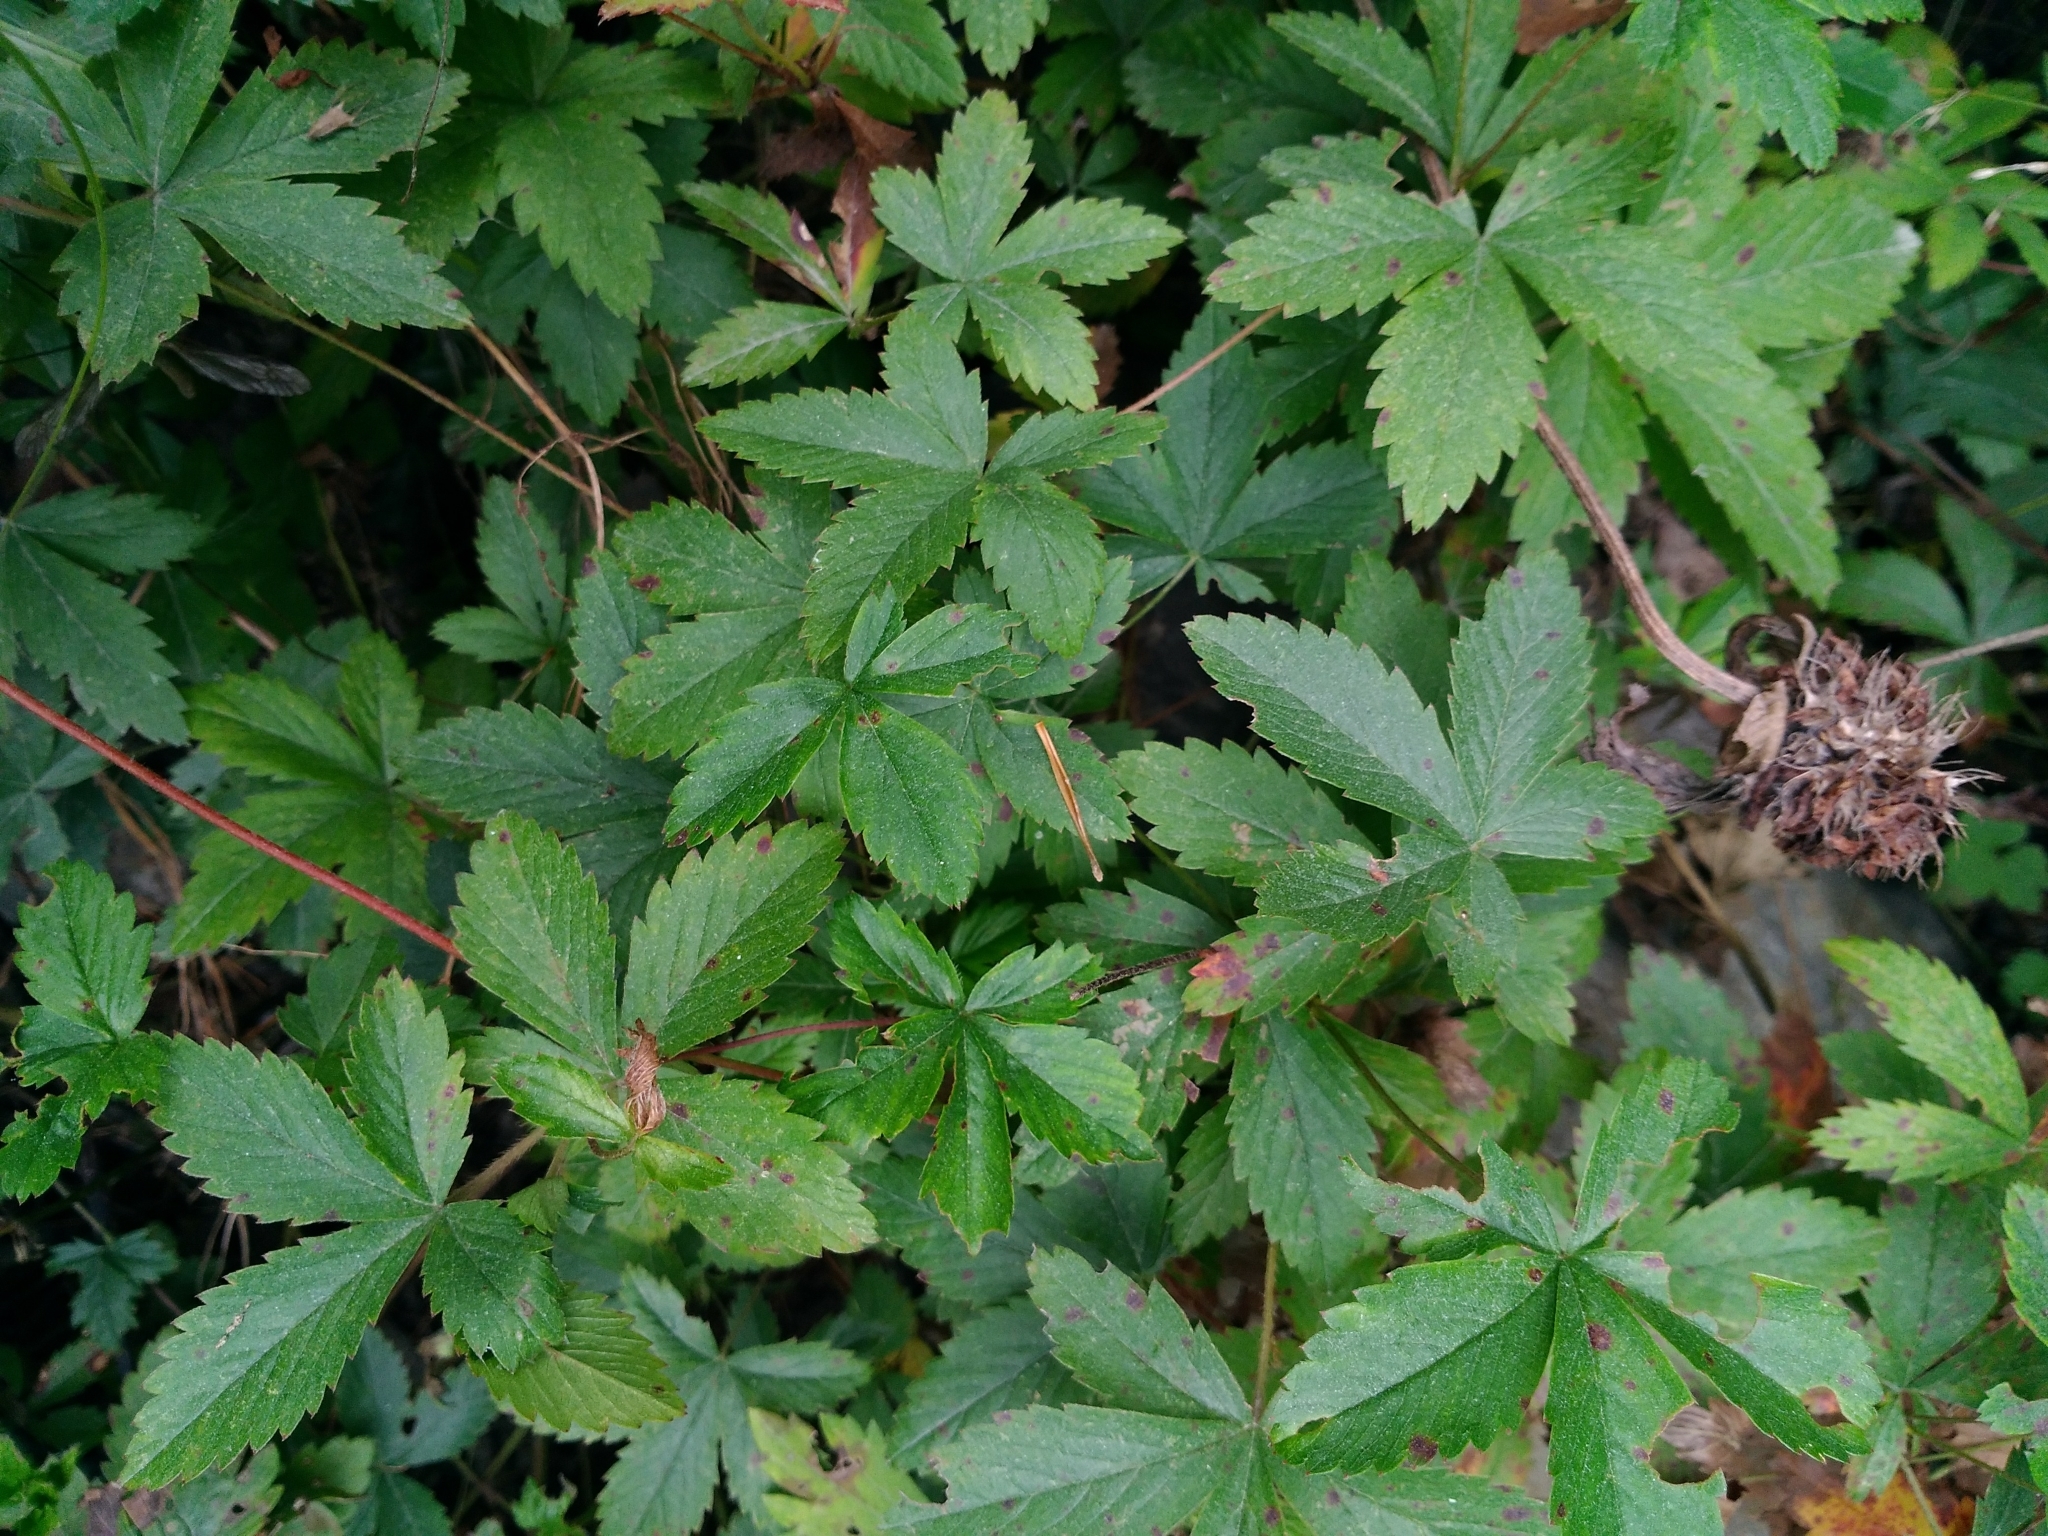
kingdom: Plantae
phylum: Tracheophyta
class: Magnoliopsida
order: Rosales
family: Rosaceae
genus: Potentilla
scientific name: Potentilla simplex
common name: Old field cinquefoil
